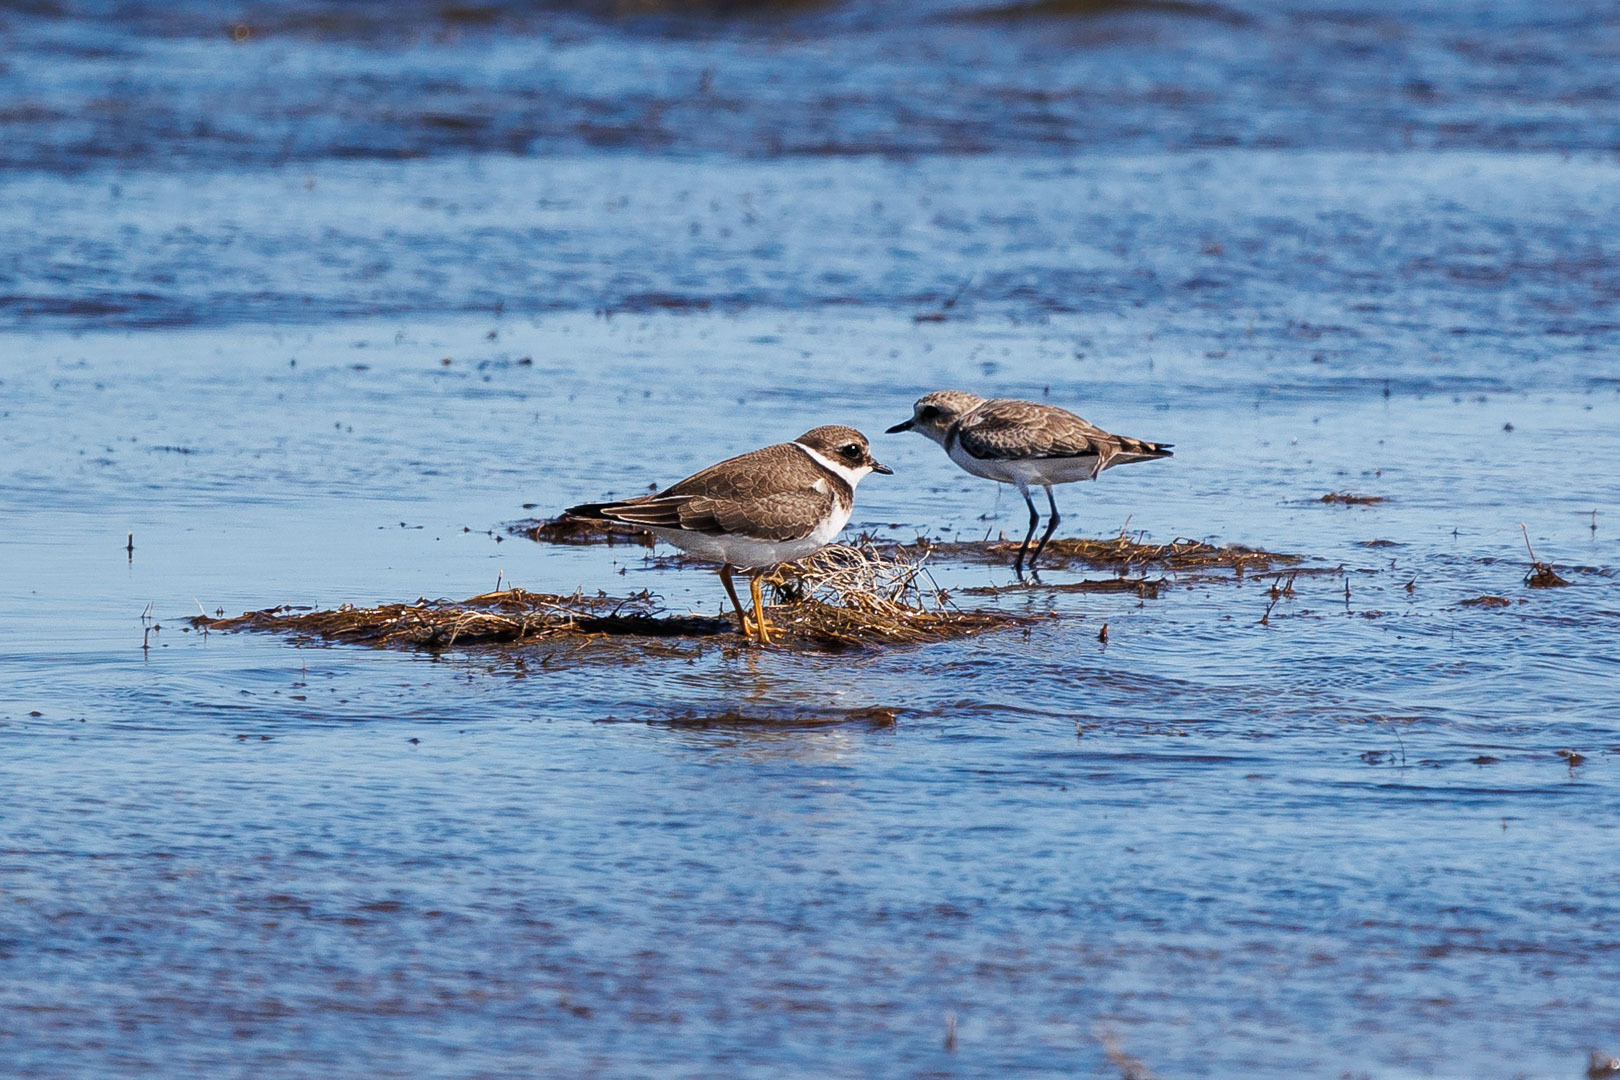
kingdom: Animalia
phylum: Chordata
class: Aves
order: Charadriiformes
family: Charadriidae
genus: Charadrius
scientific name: Charadrius hiaticula
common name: Common ringed plover
